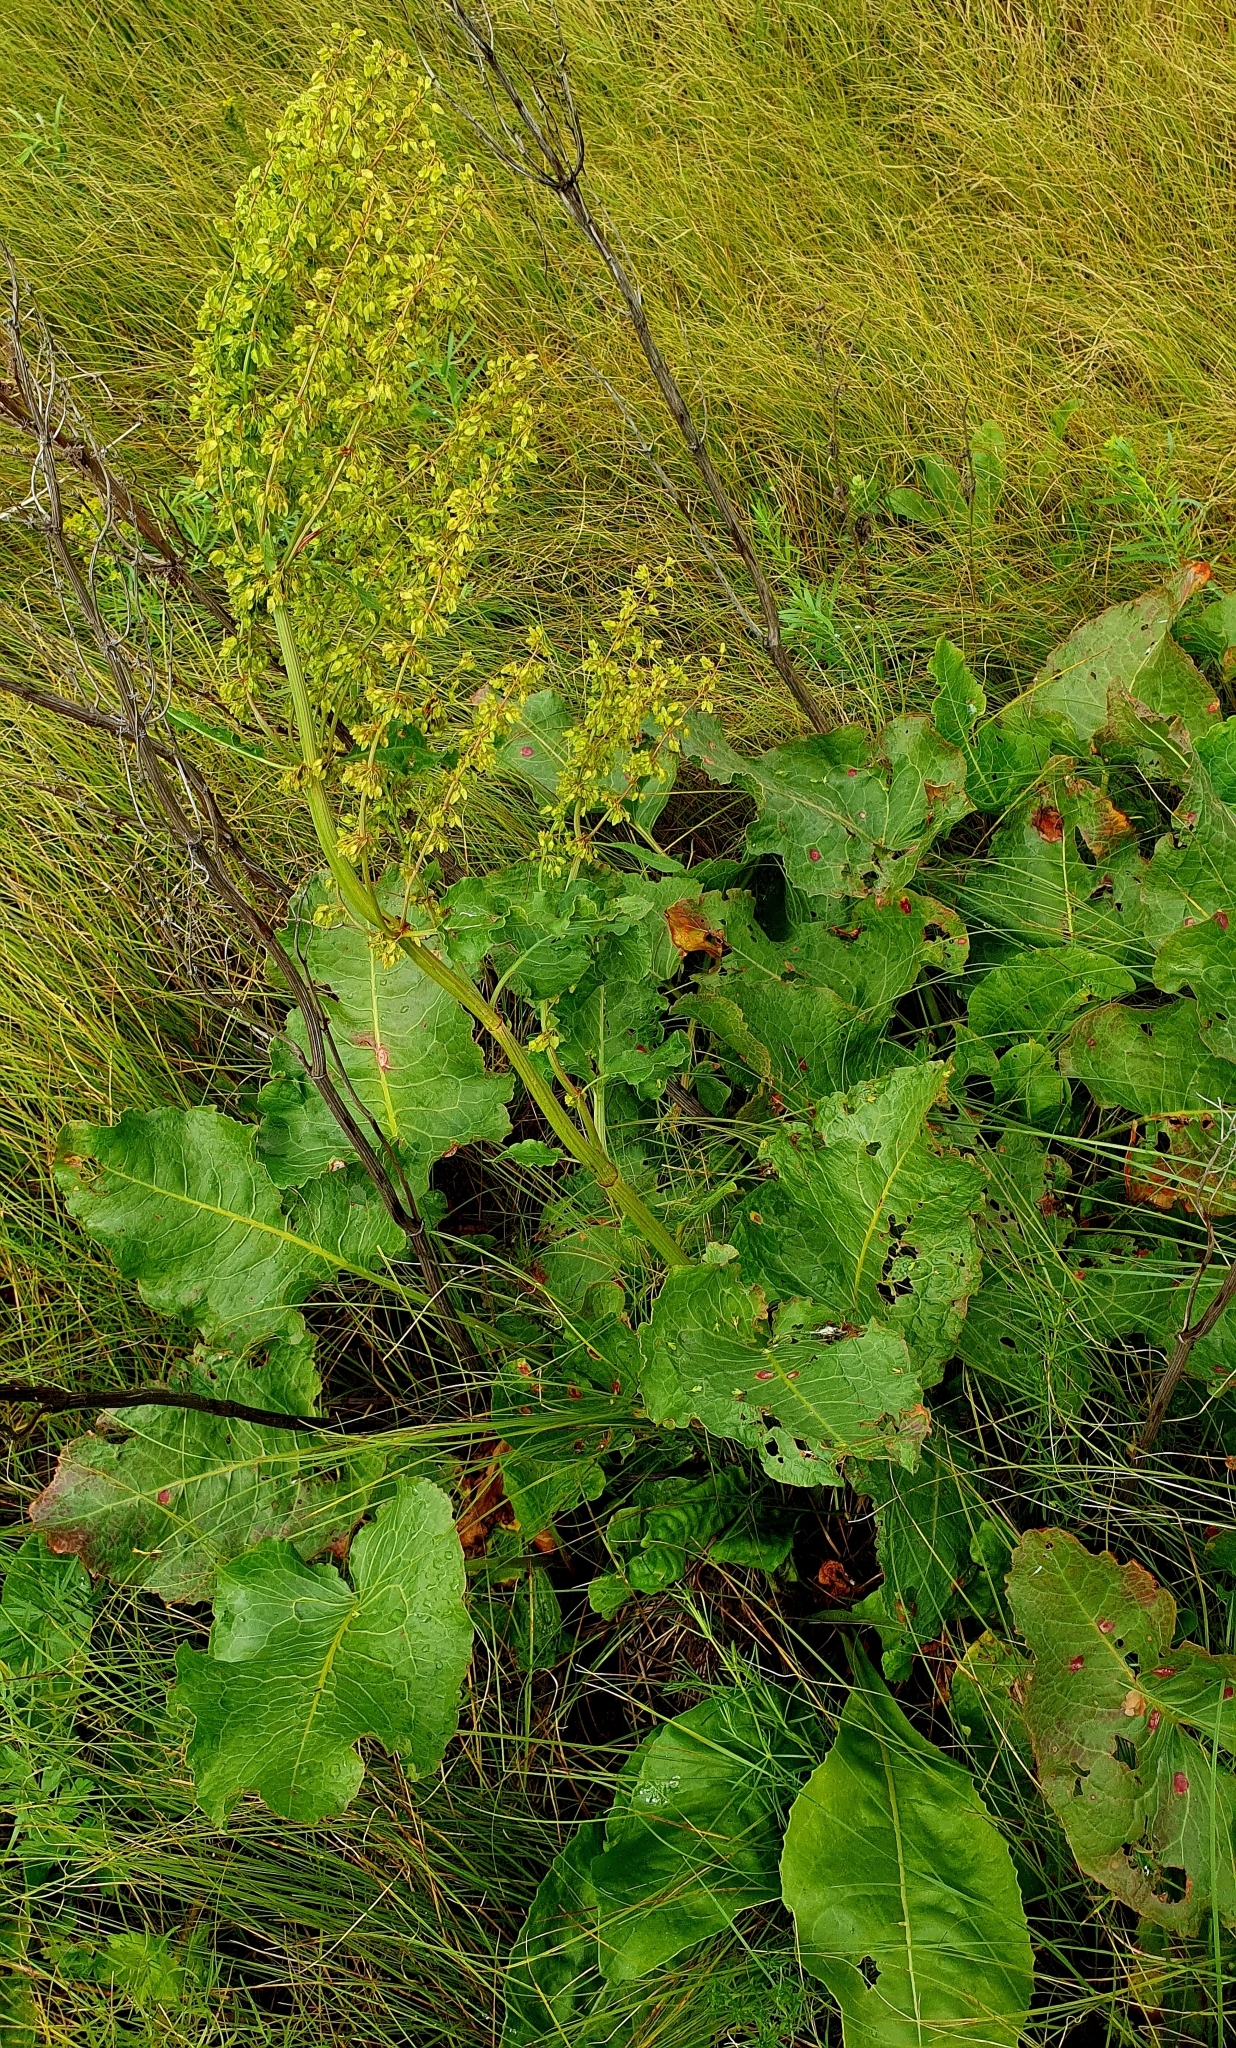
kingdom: Plantae
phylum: Tracheophyta
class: Magnoliopsida
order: Caryophyllales
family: Polygonaceae
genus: Rumex
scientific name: Rumex confertus
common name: Russian dock
